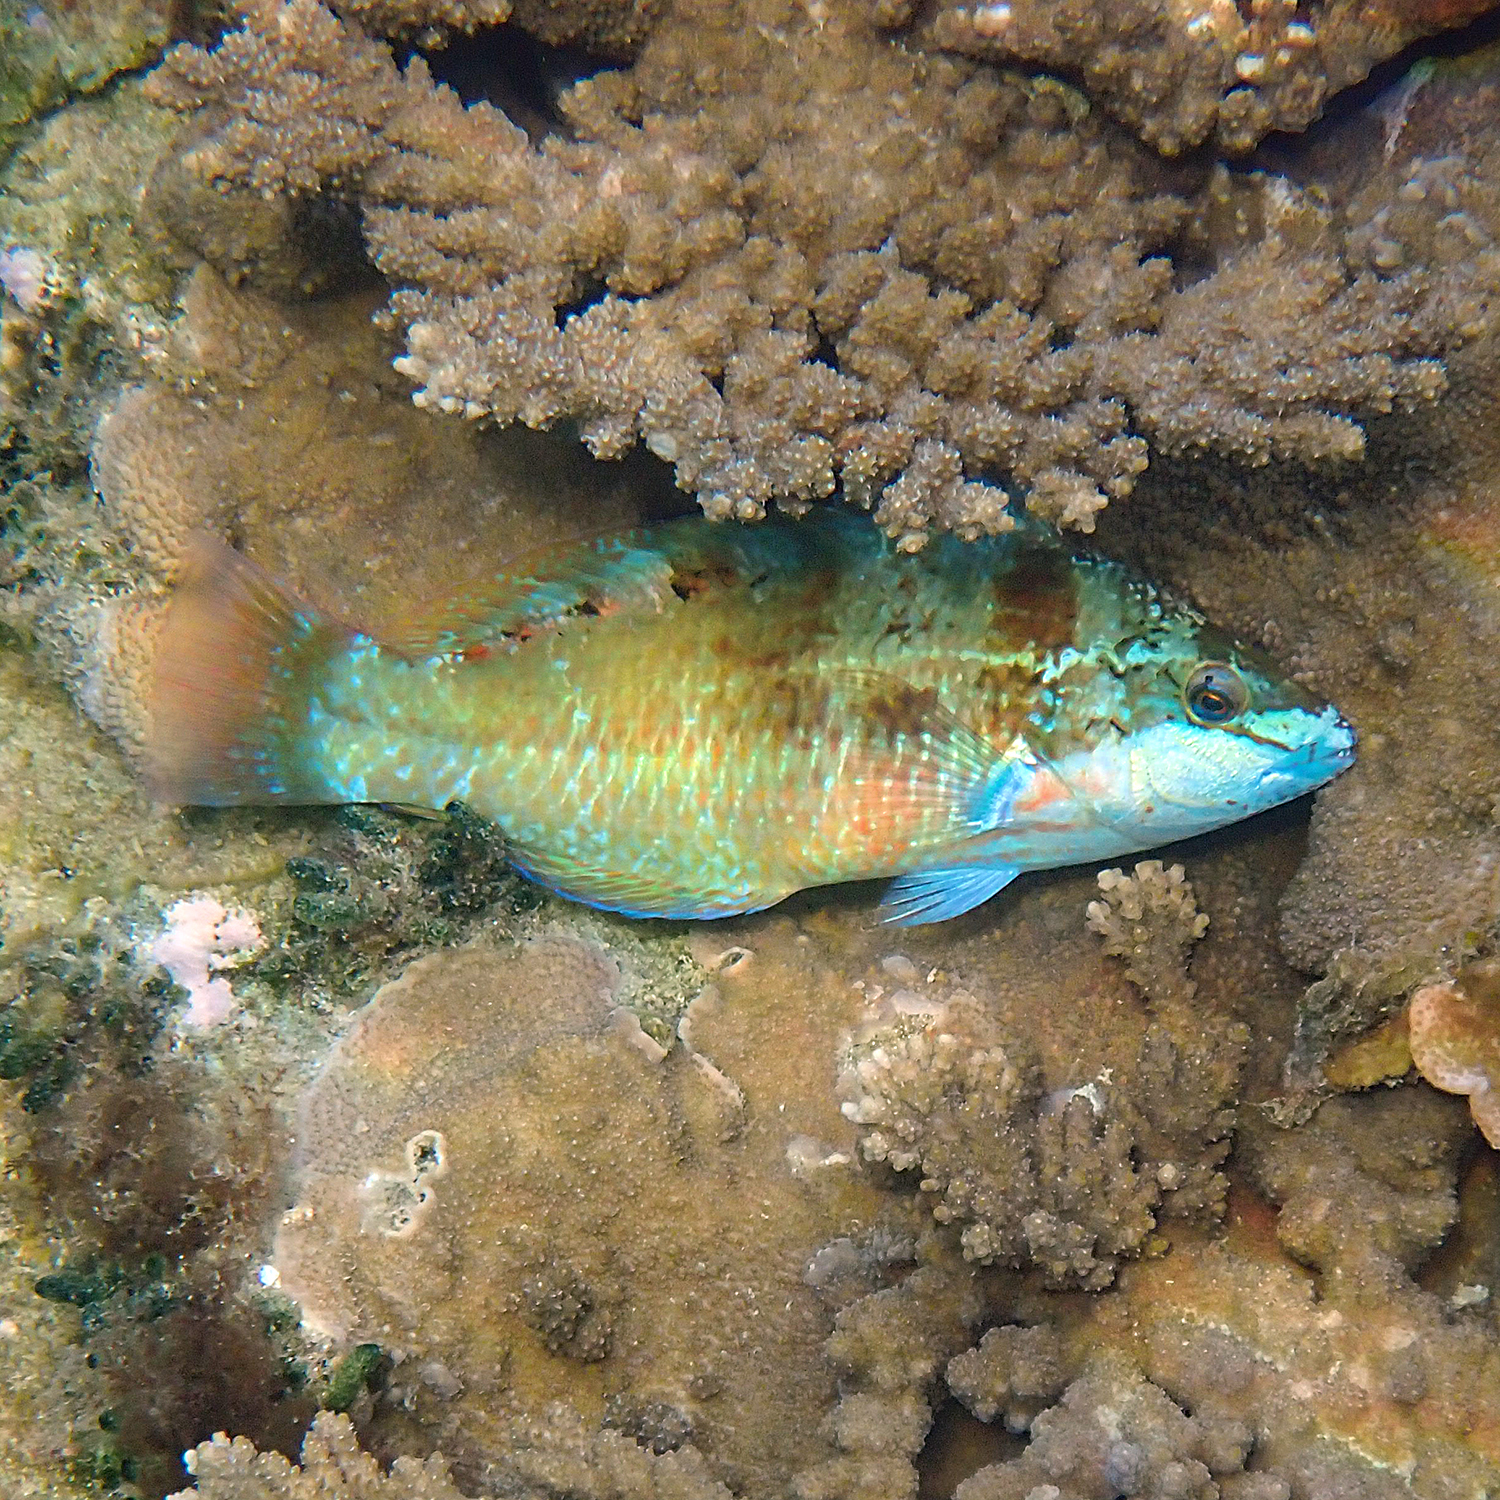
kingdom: Animalia
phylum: Chordata
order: Perciformes
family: Labridae
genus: Pseudolabrus
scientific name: Pseudolabrus luculentus
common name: Luculentus wrasse
